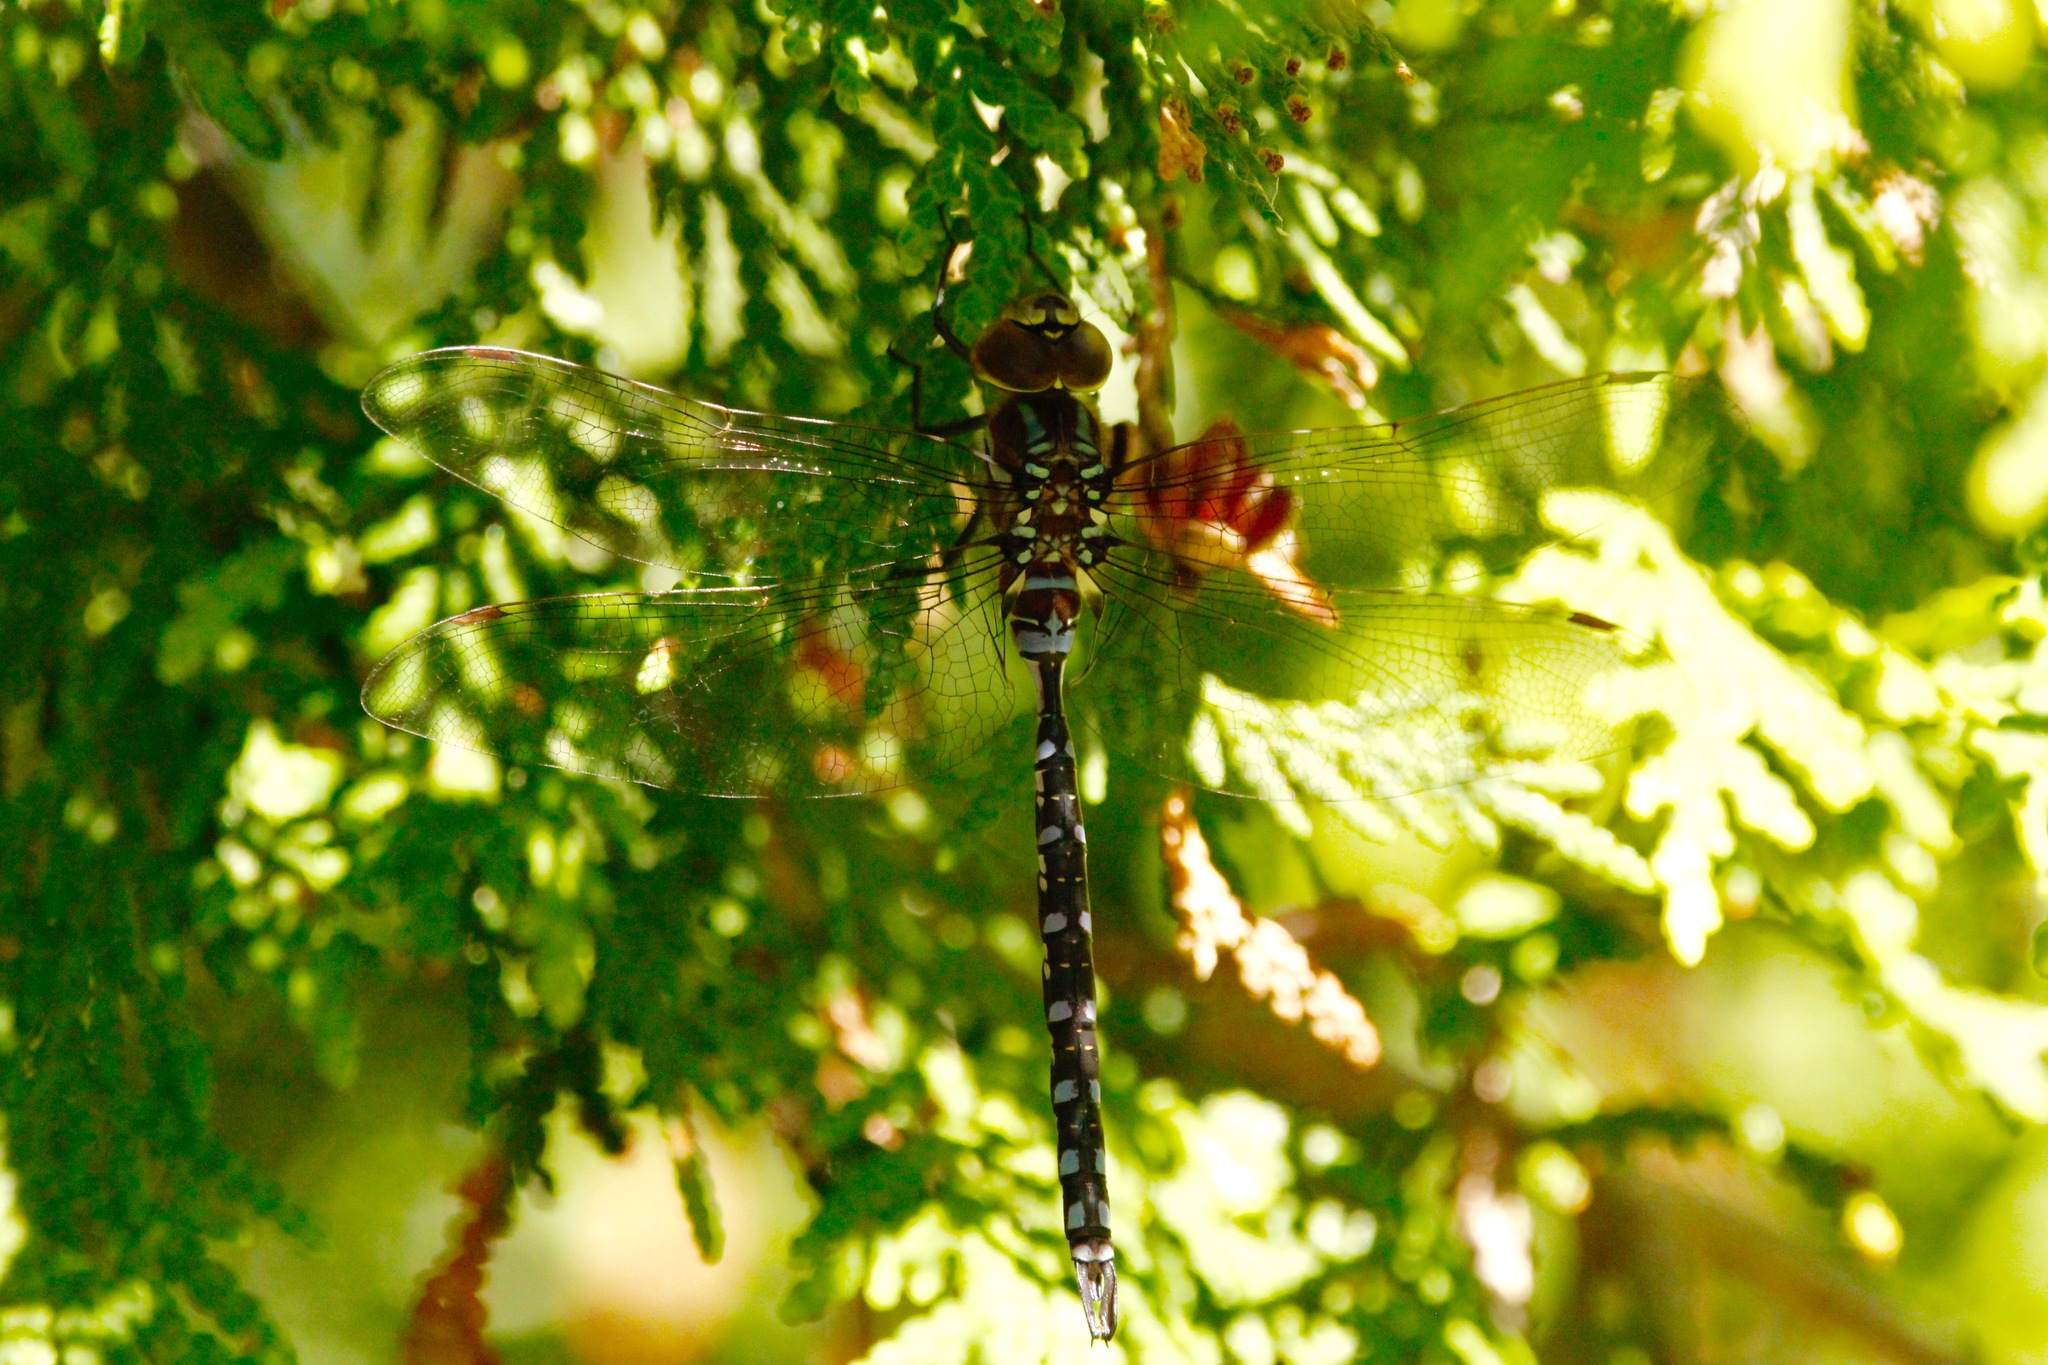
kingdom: Animalia
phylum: Arthropoda
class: Insecta
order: Odonata
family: Aeshnidae
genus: Aeshna
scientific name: Aeshna constricta
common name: Lance-tipped darner
